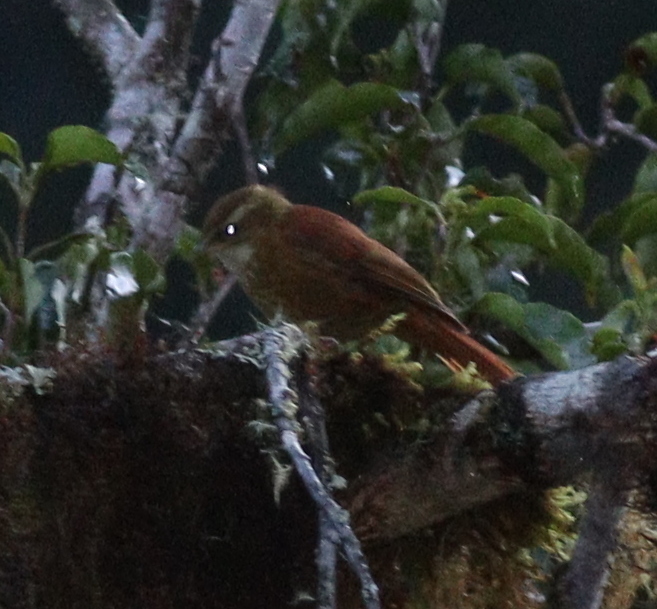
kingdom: Animalia
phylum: Chordata
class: Aves
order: Passeriformes
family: Furnariidae
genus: Margarornis
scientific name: Margarornis rubiginosus
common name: Ruddy treerunner
